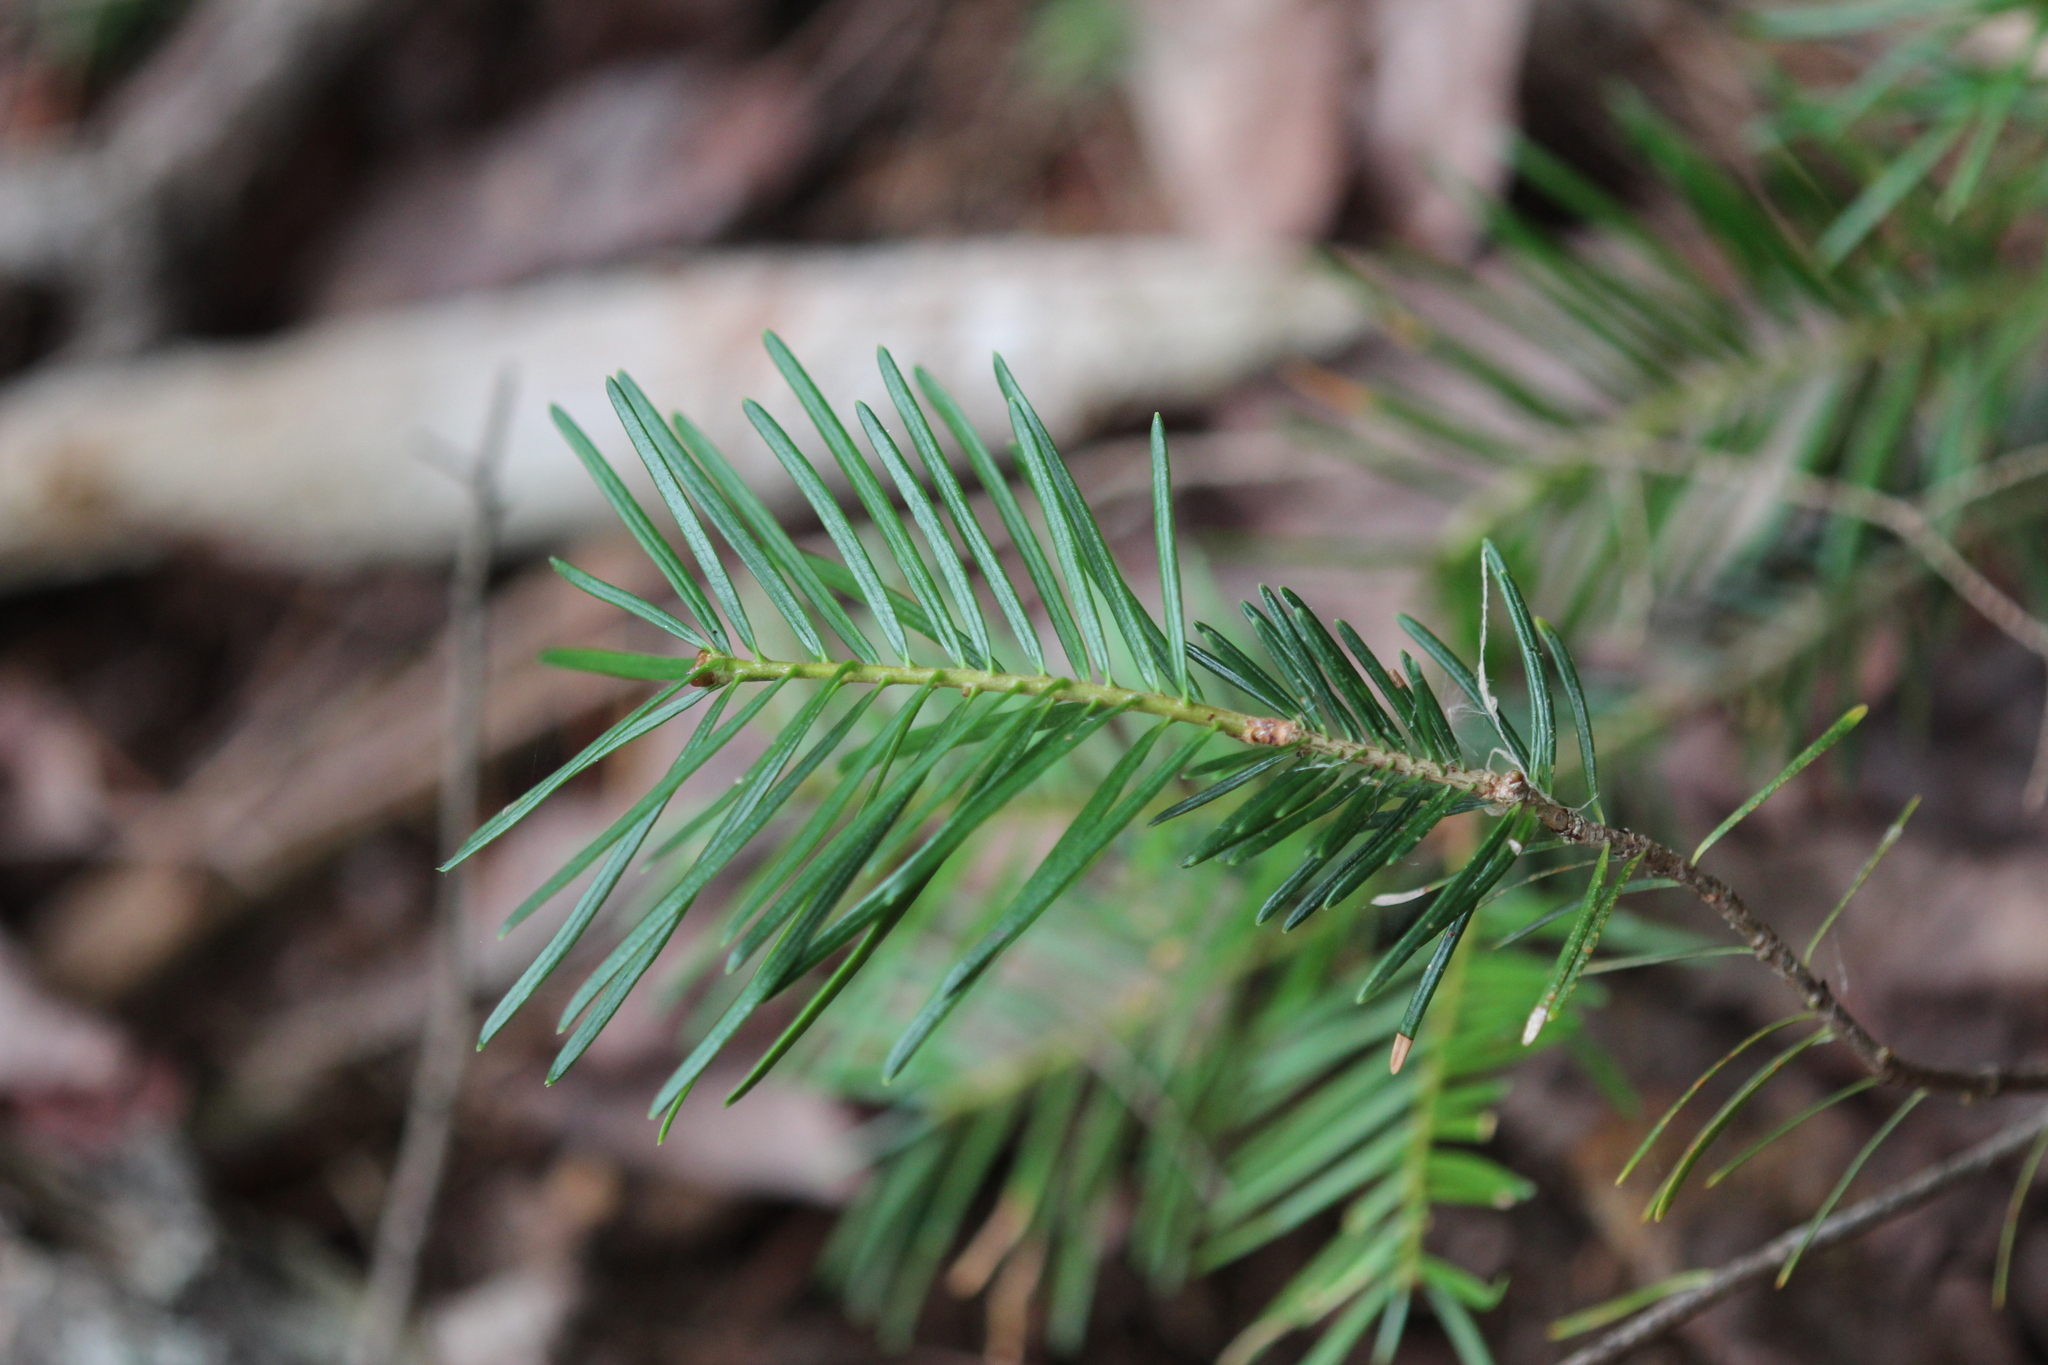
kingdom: Plantae
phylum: Tracheophyta
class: Pinopsida
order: Pinales
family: Pinaceae
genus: Abies
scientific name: Abies balsamea
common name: Balsam fir
